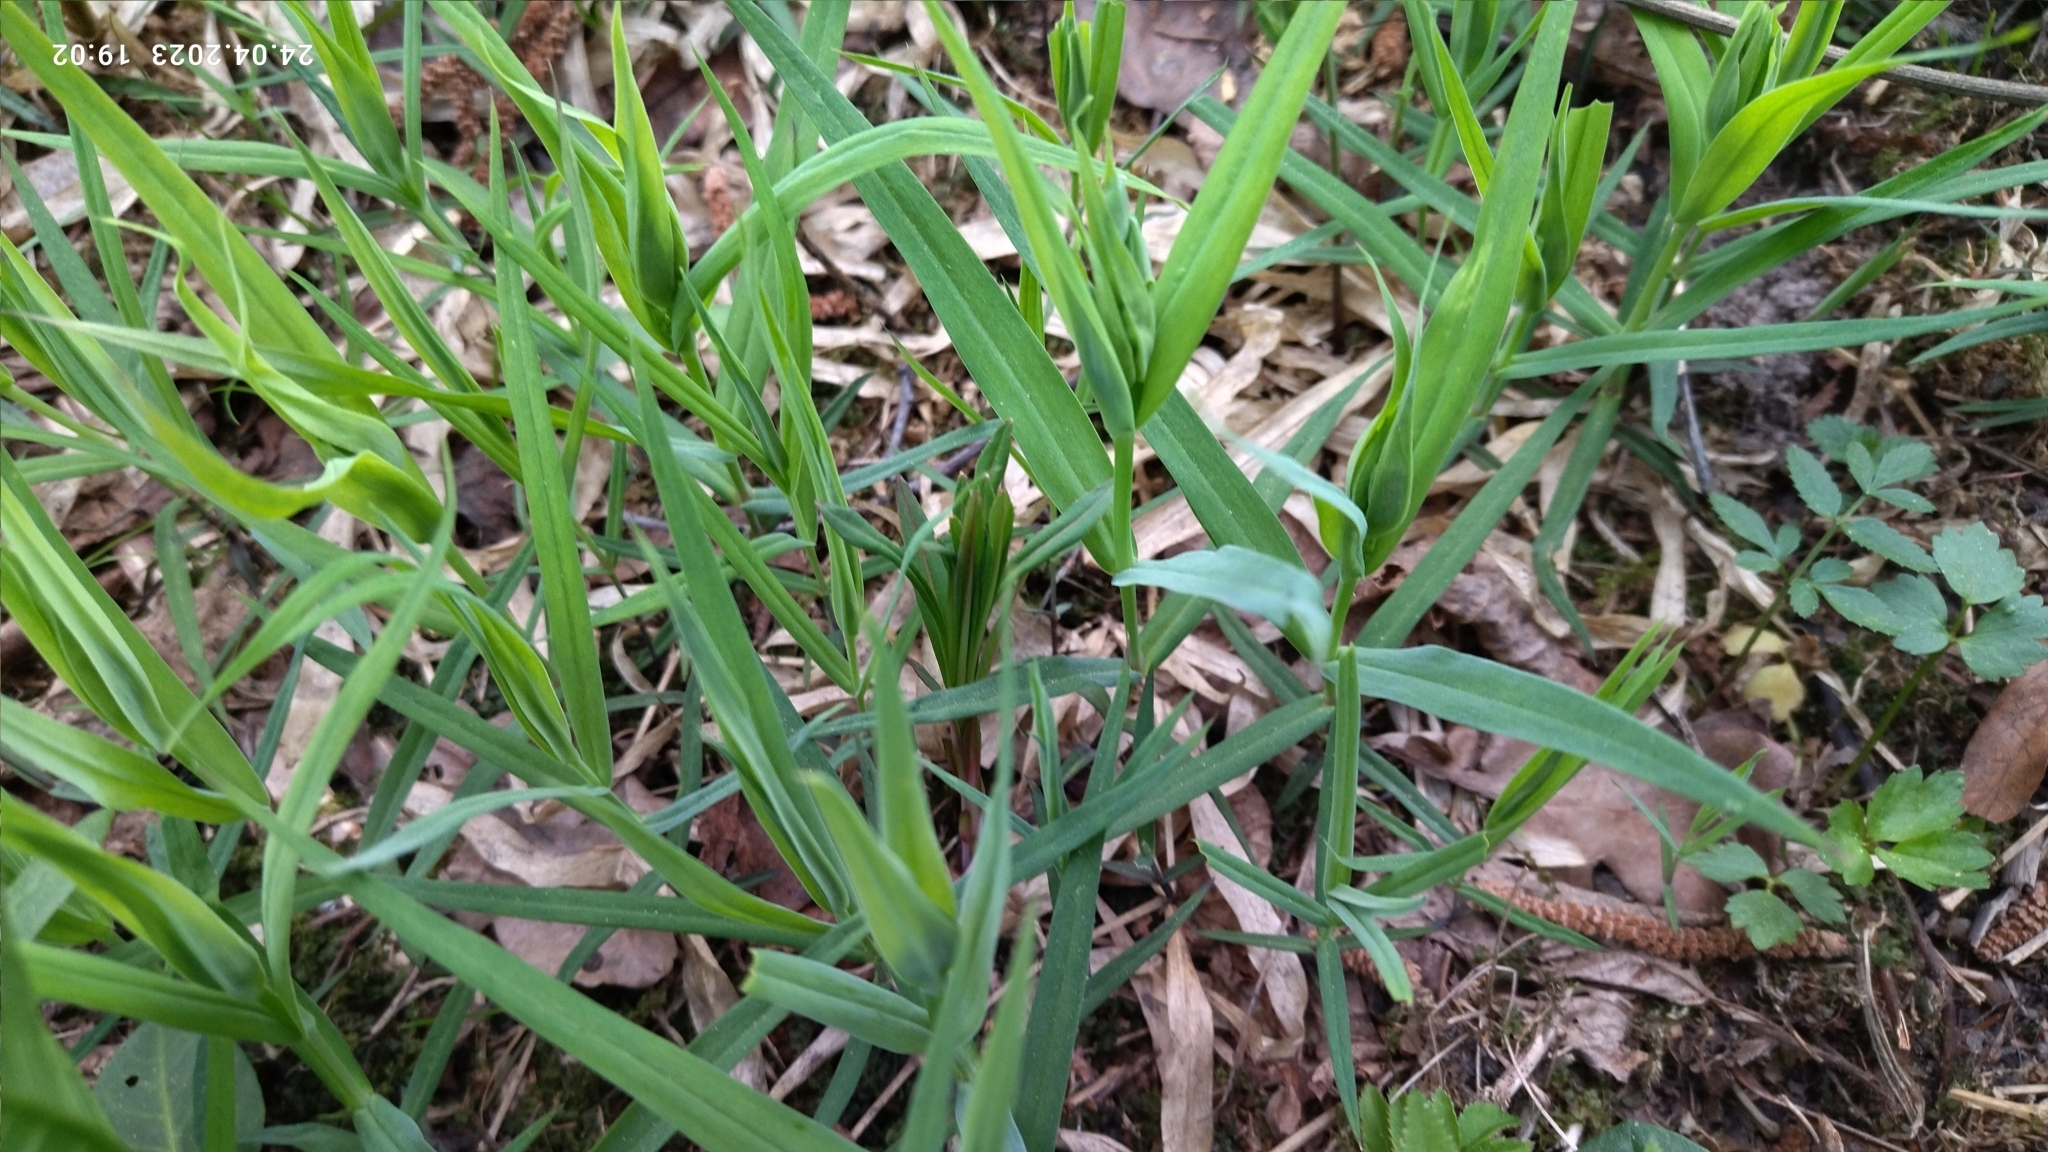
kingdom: Plantae
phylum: Tracheophyta
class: Magnoliopsida
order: Caryophyllales
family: Caryophyllaceae
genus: Rabelera
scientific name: Rabelera holostea
